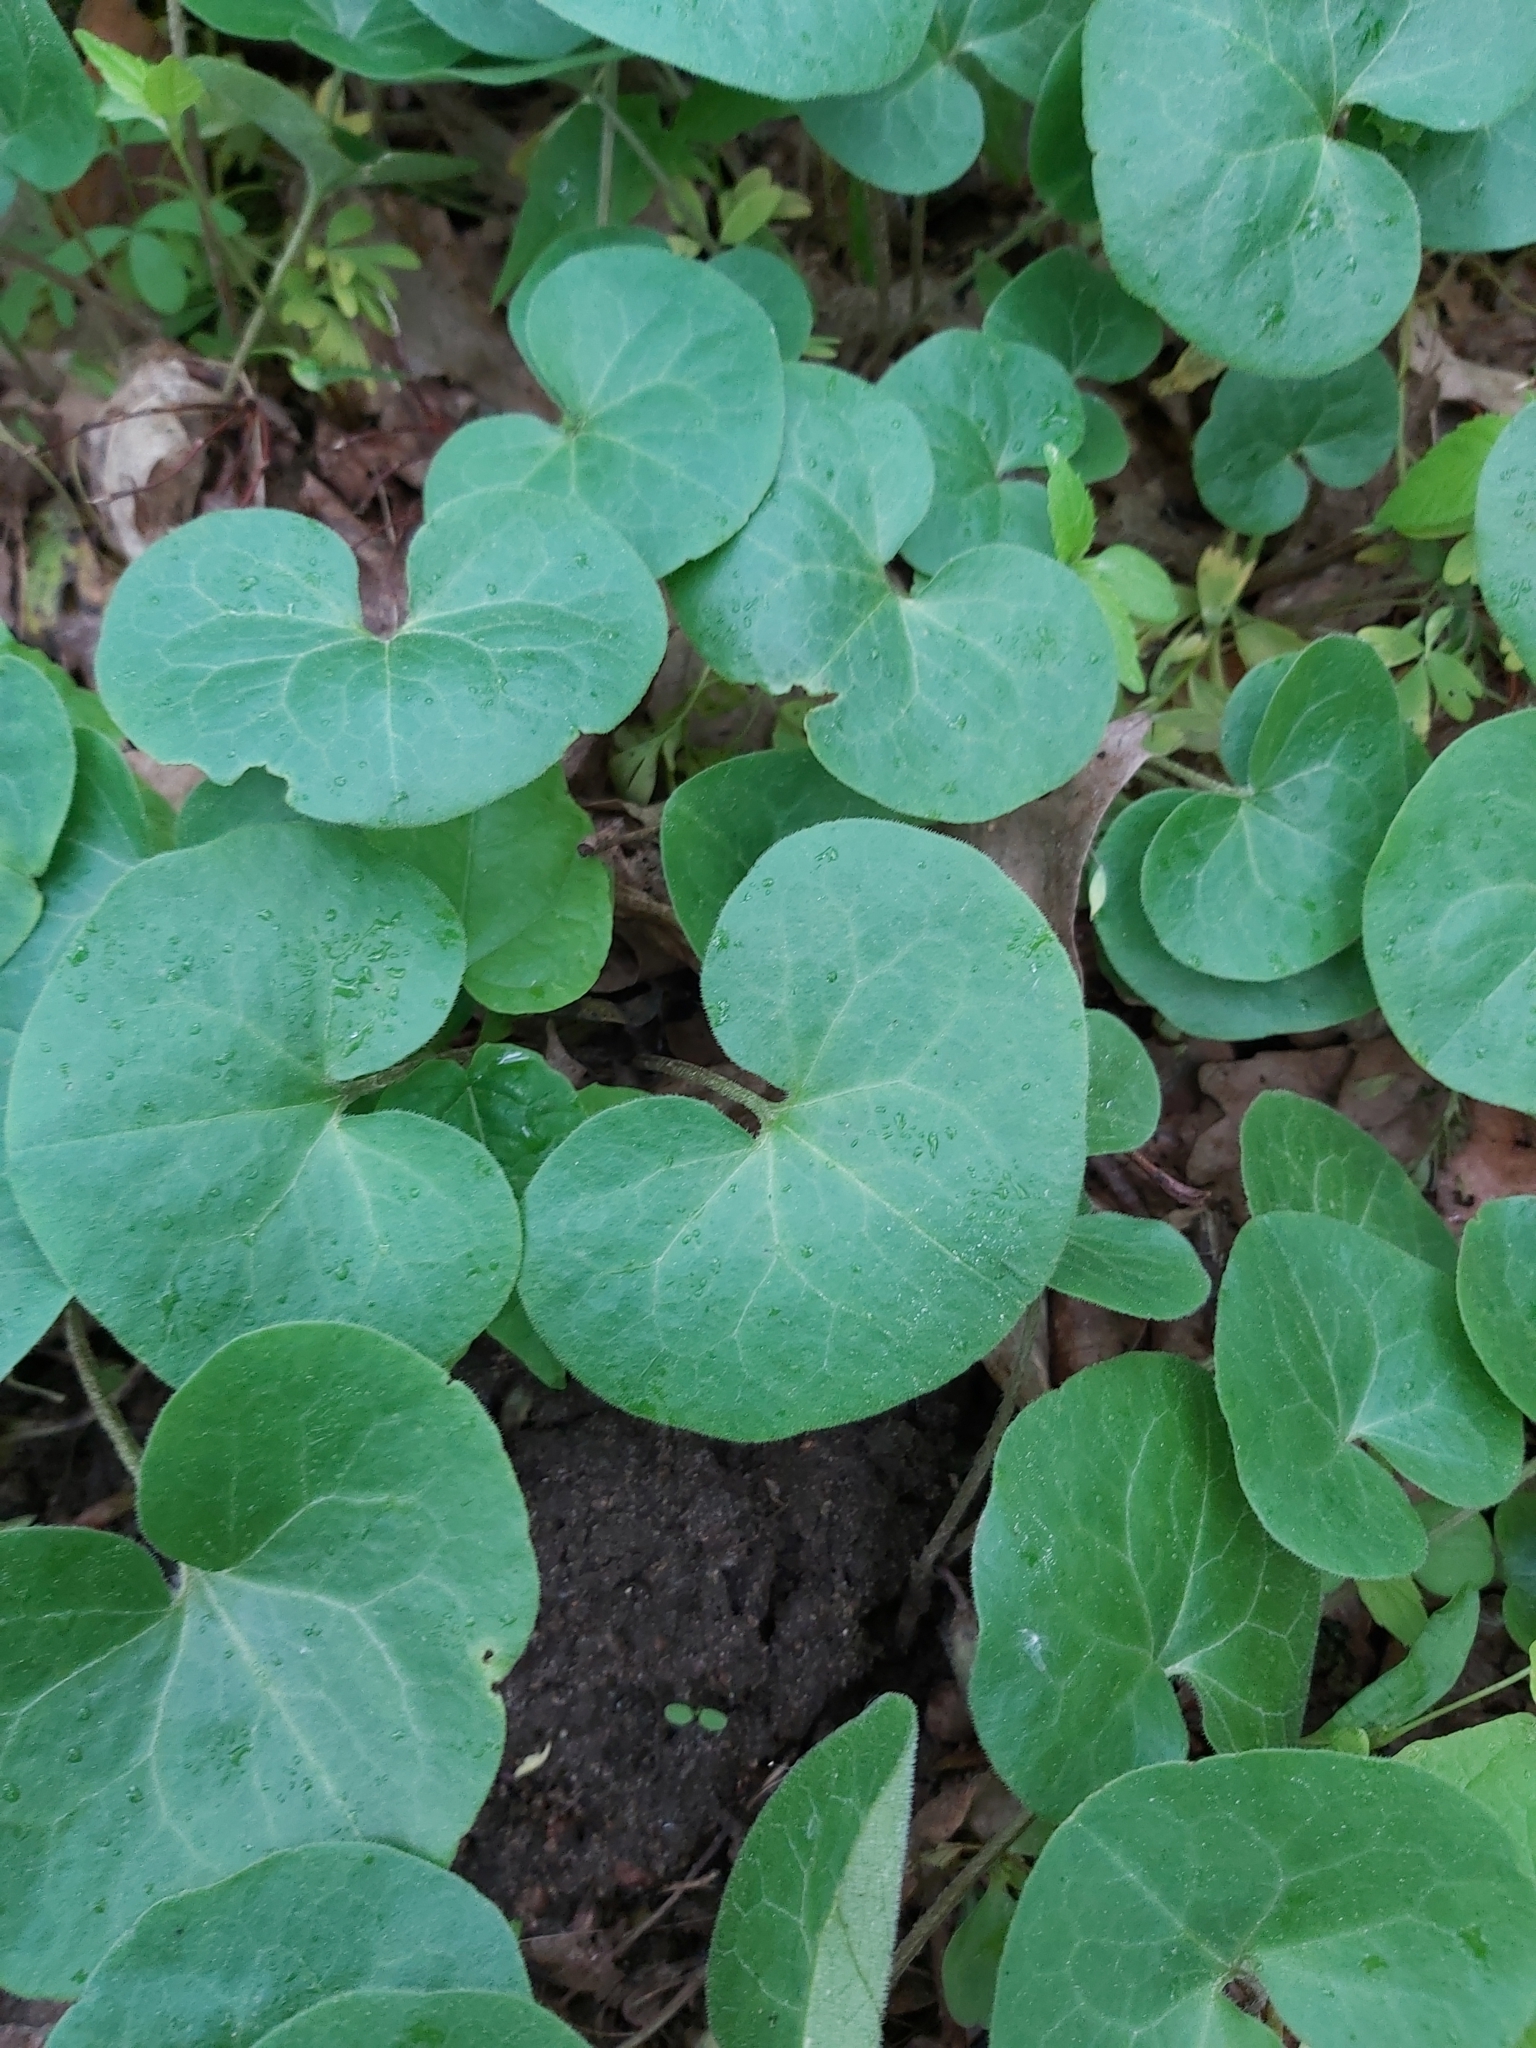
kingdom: Plantae
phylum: Tracheophyta
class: Magnoliopsida
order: Piperales
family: Aristolochiaceae
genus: Asarum
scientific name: Asarum europaeum
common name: Asarabacca
